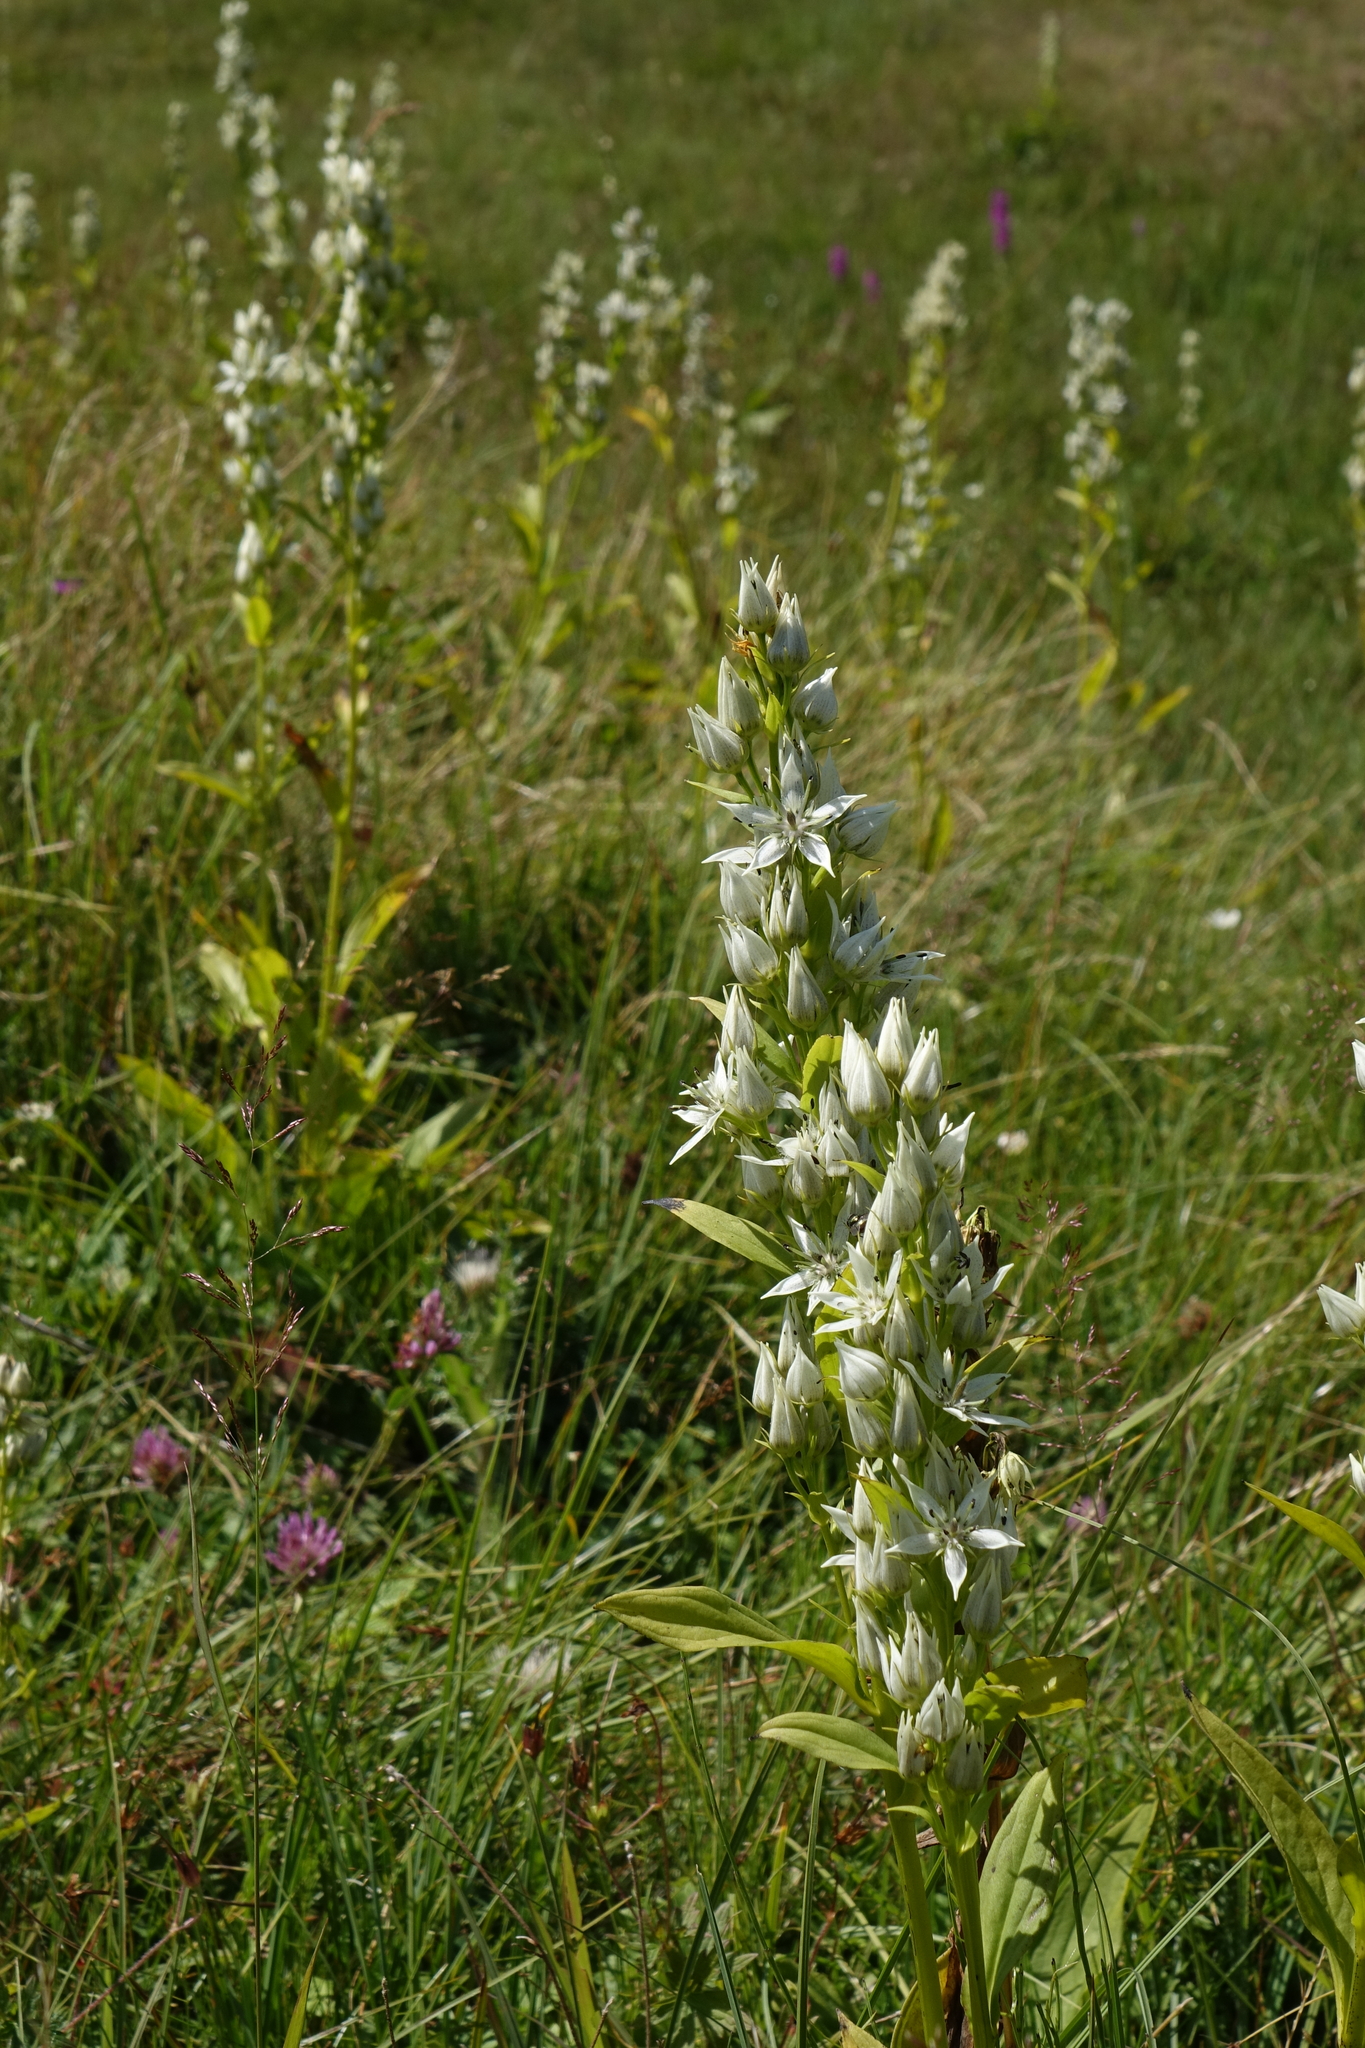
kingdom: Plantae
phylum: Tracheophyta
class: Magnoliopsida
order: Gentianales
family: Gentianaceae
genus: Swertia
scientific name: Swertia iberica
